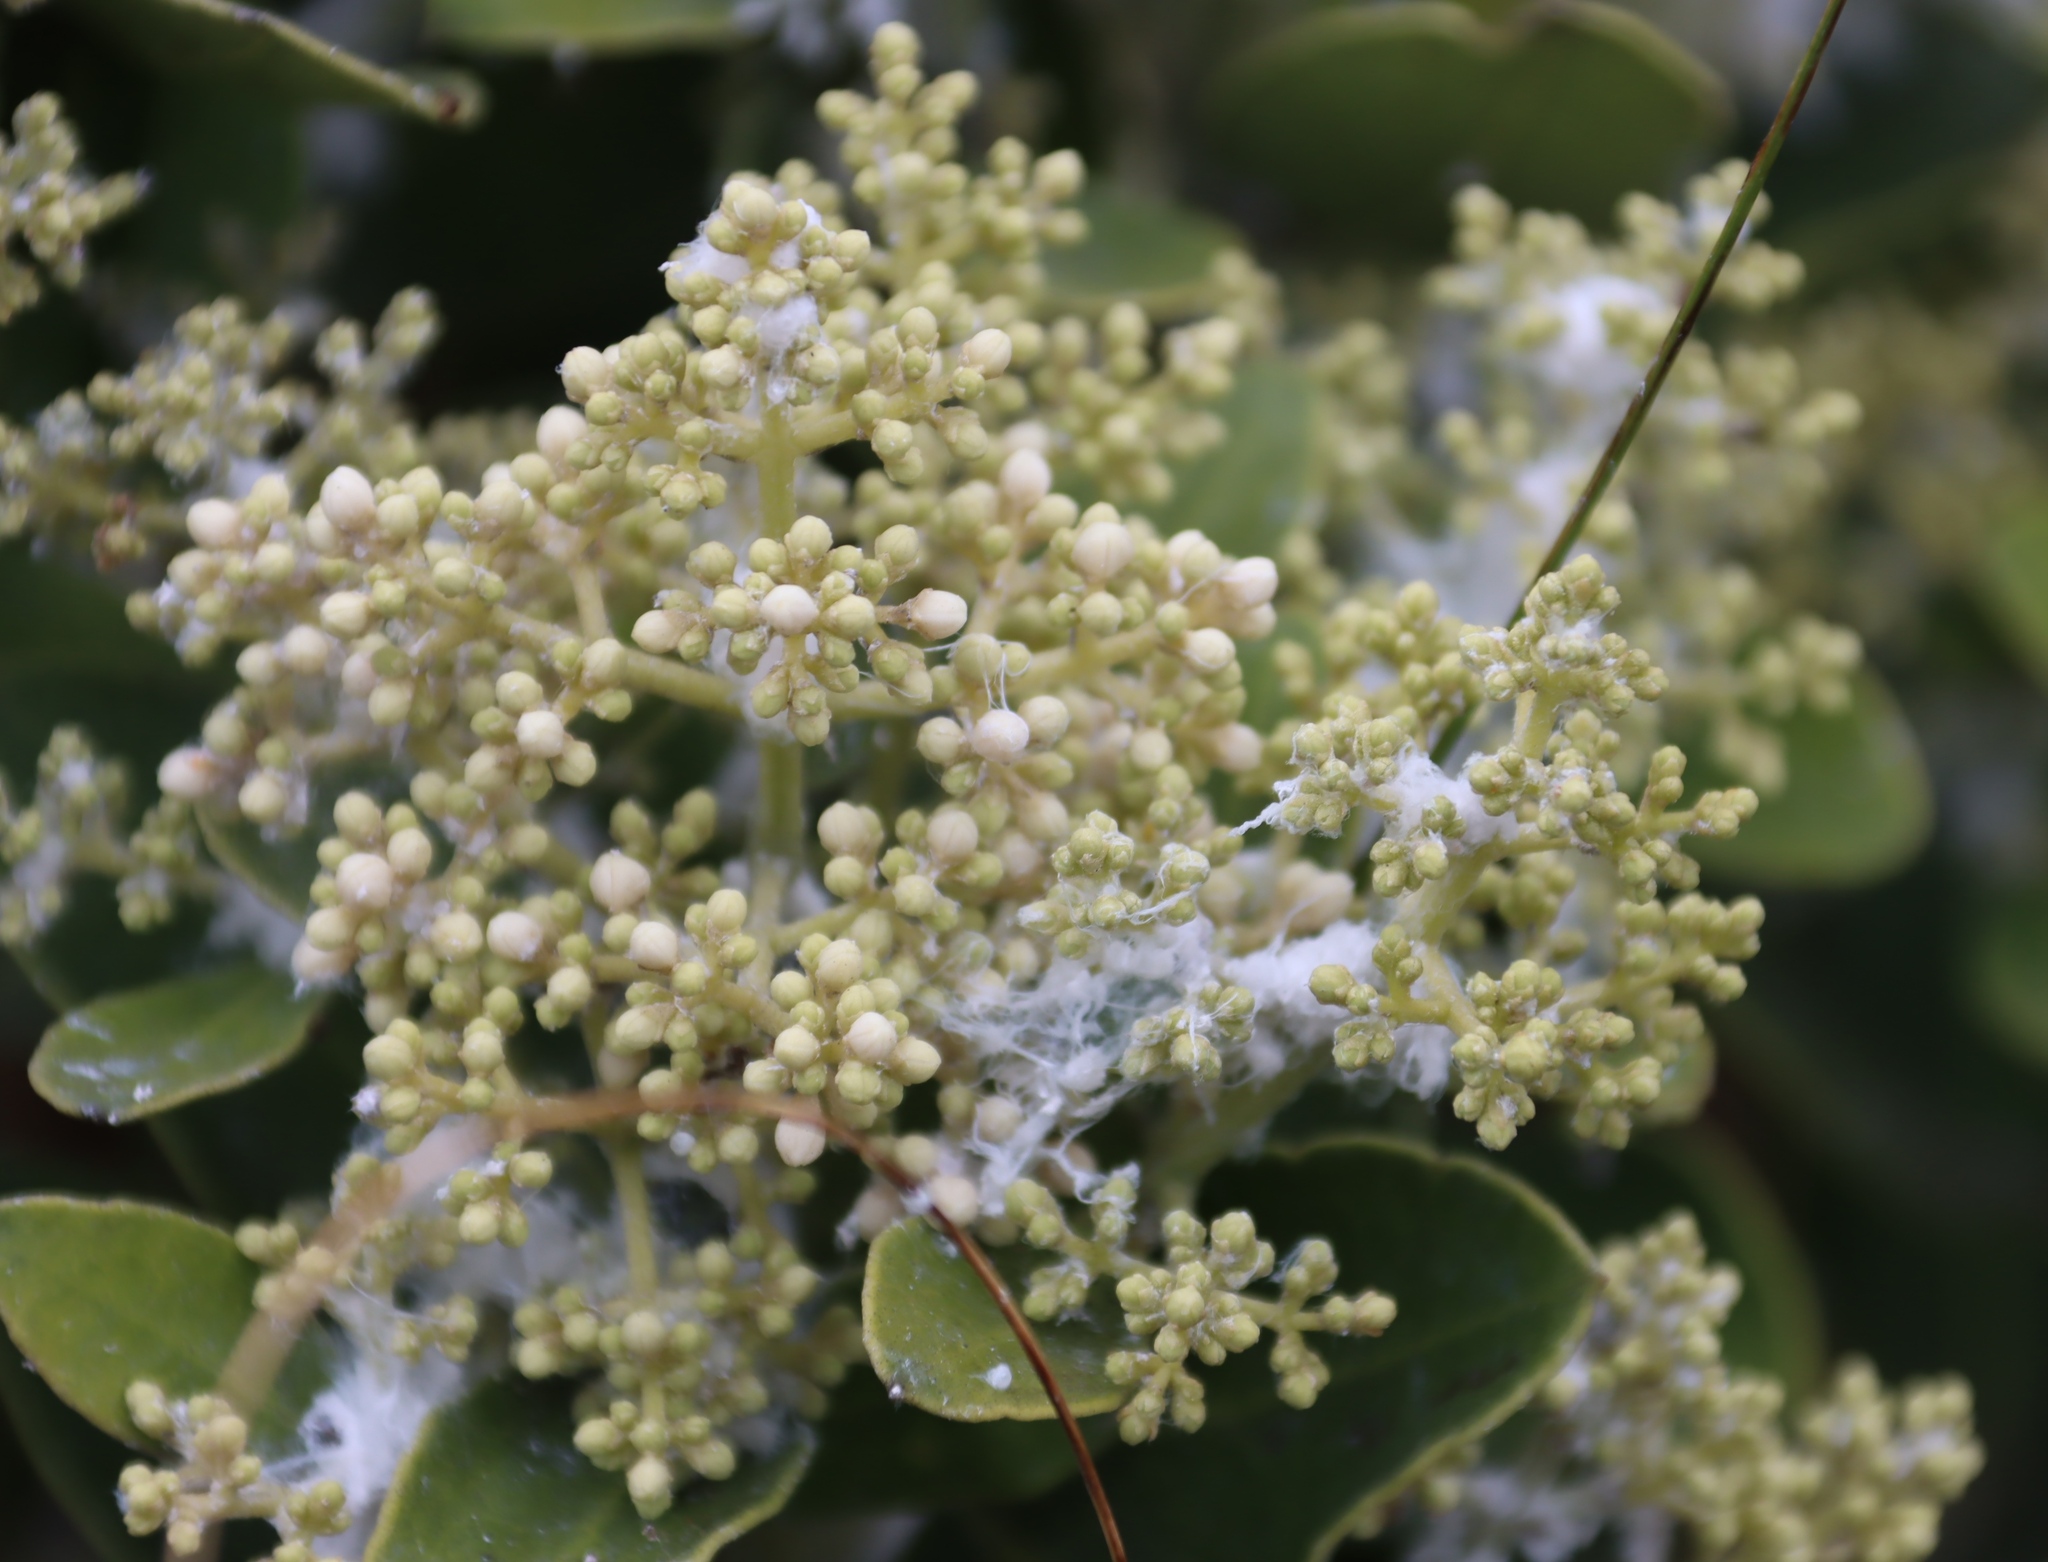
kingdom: Plantae
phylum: Tracheophyta
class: Magnoliopsida
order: Lamiales
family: Oleaceae
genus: Olea
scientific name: Olea capensis
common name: Black ironwood
